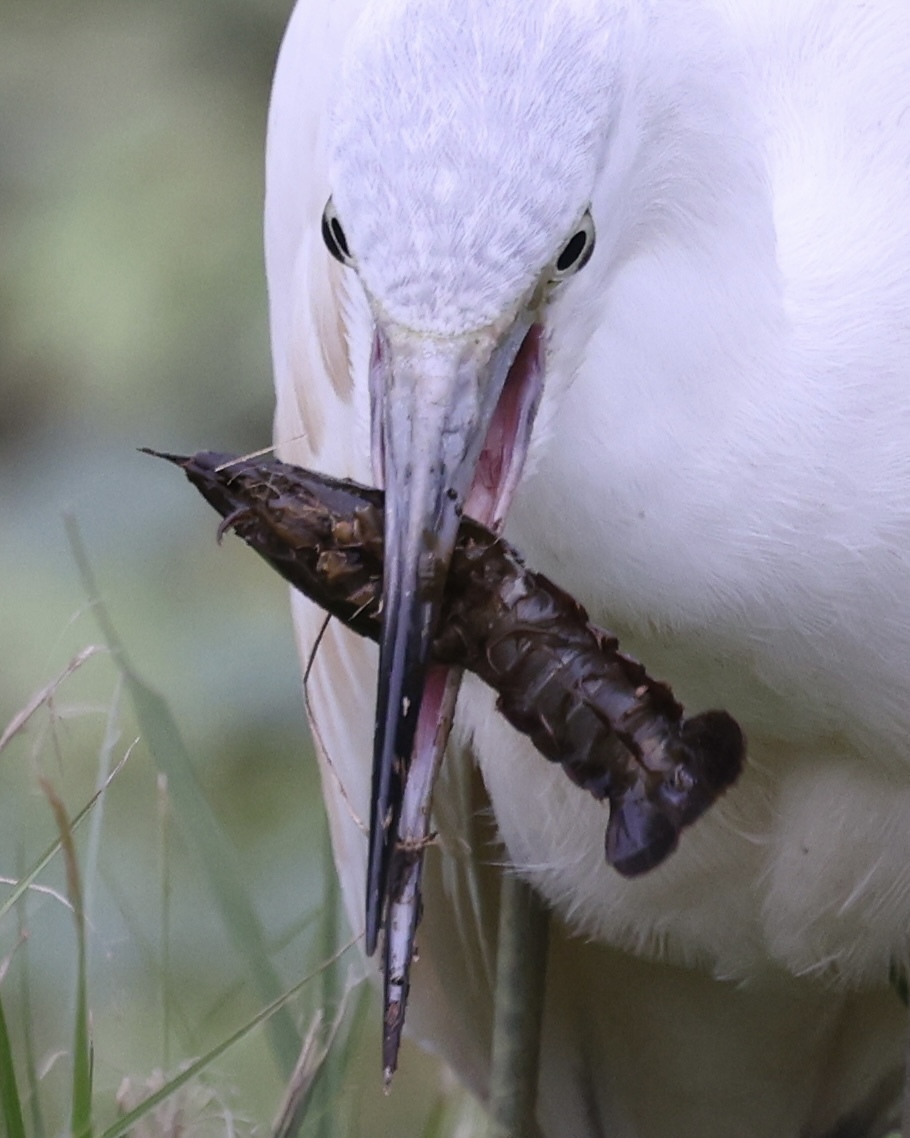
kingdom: Animalia
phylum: Chordata
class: Aves
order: Pelecaniformes
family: Ardeidae
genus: Egretta
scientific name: Egretta caerulea
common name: Little blue heron
